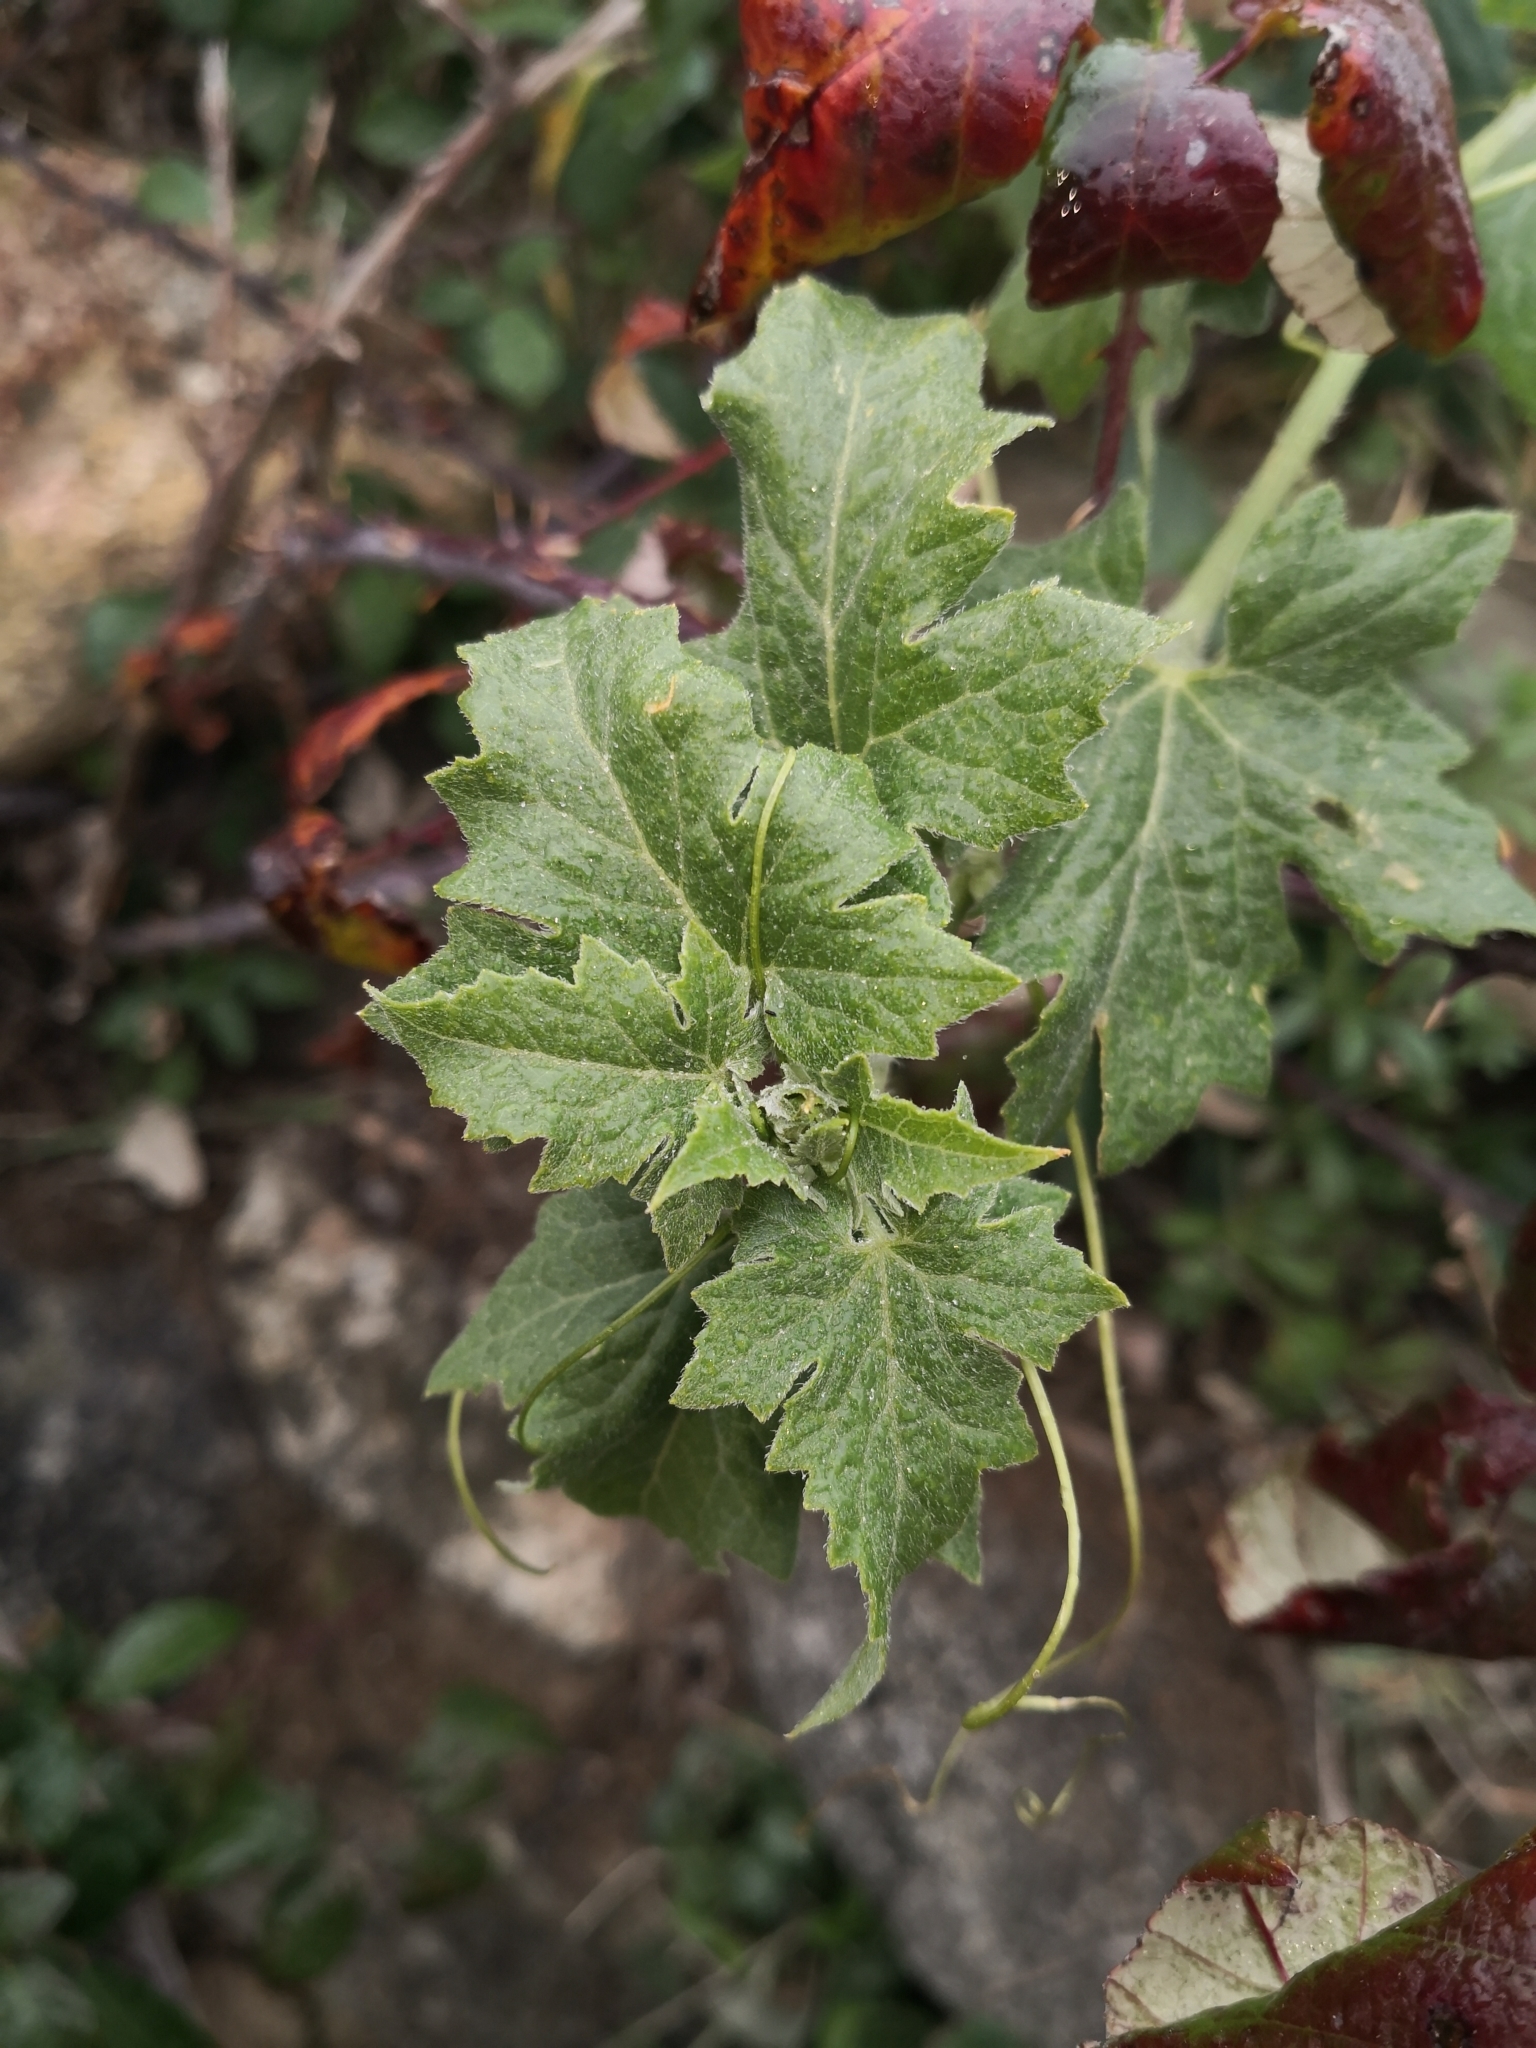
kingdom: Plantae
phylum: Tracheophyta
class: Magnoliopsida
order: Cucurbitales
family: Cucurbitaceae
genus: Bryonia
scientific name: Bryonia cretica
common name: Cretan bryony
